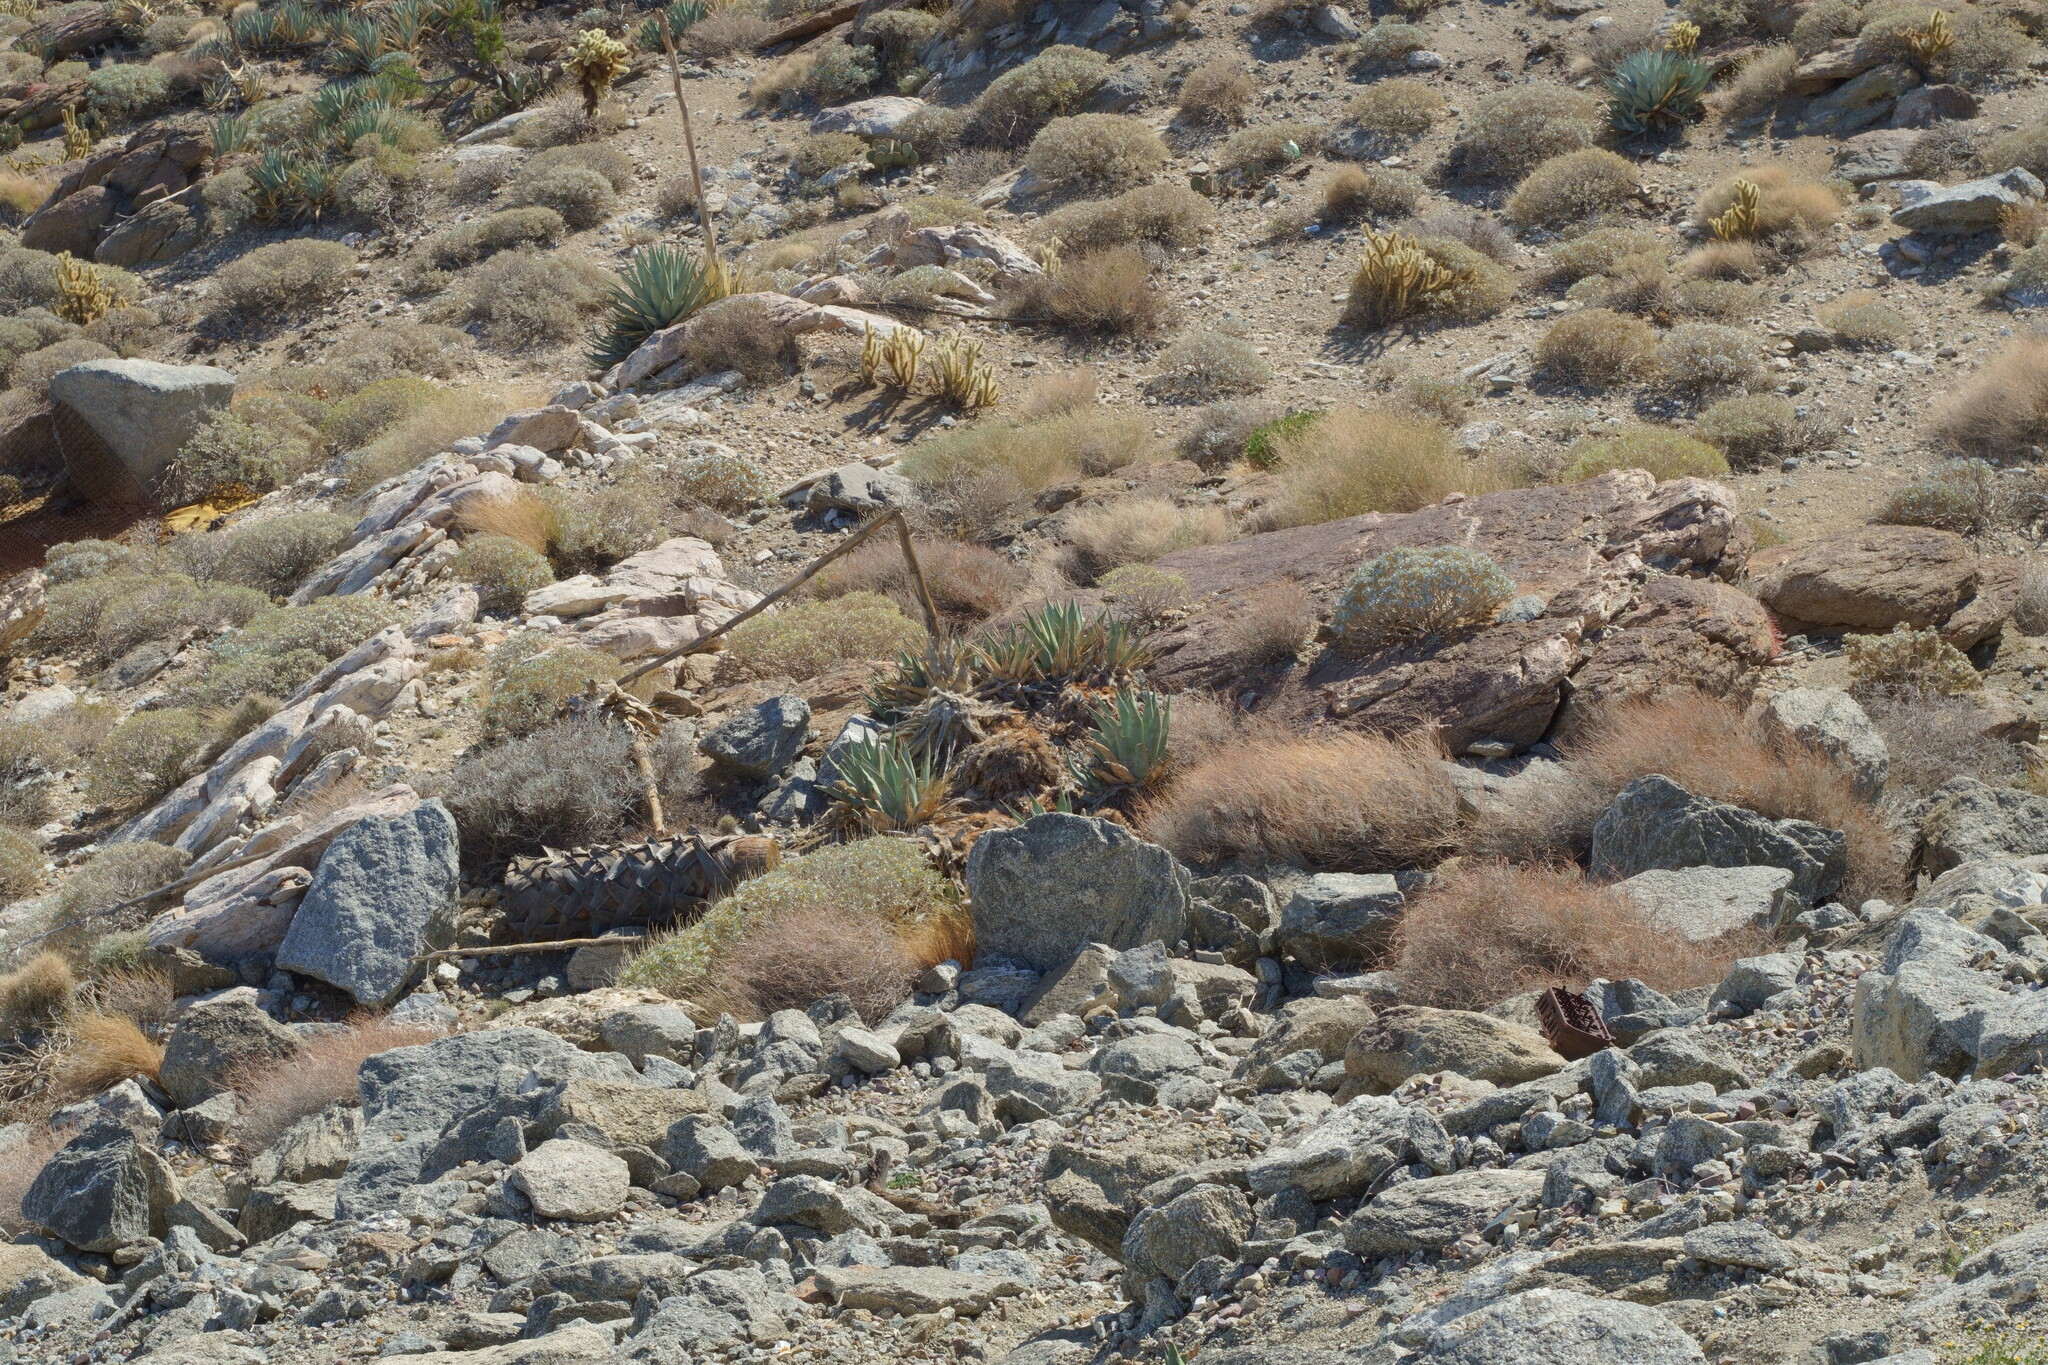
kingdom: Plantae
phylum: Tracheophyta
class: Liliopsida
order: Asparagales
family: Asparagaceae
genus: Agave
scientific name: Agave deserti
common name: Desert agave
